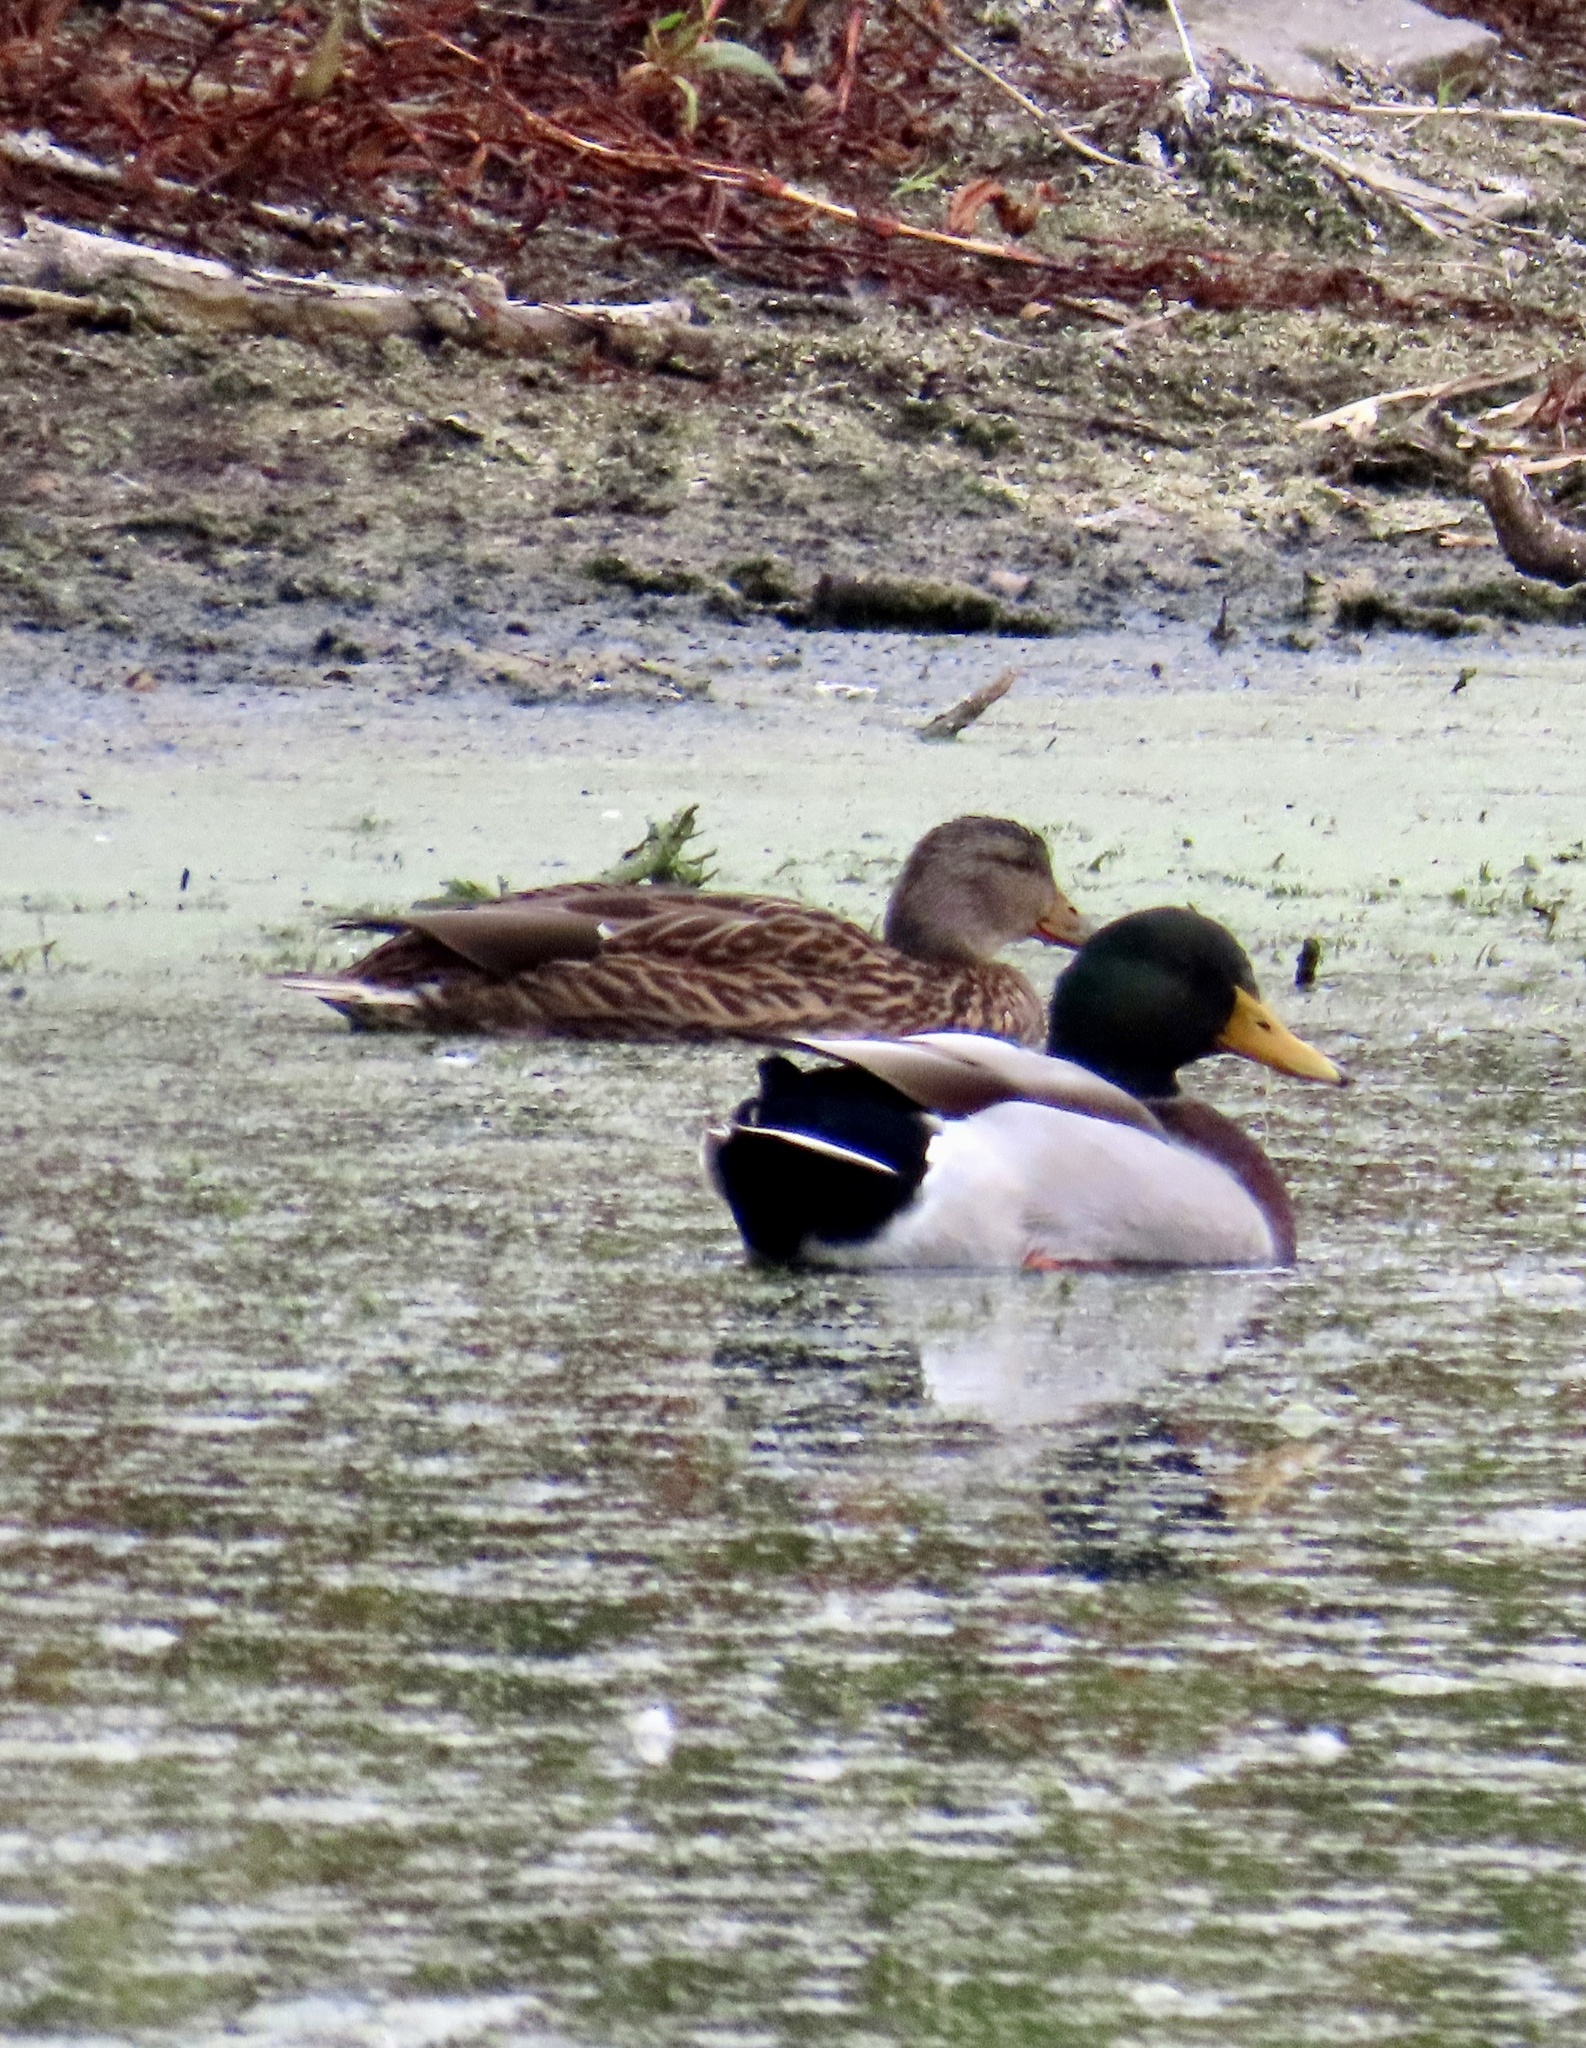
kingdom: Animalia
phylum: Chordata
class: Aves
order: Anseriformes
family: Anatidae
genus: Anas
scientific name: Anas platyrhynchos
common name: Mallard
